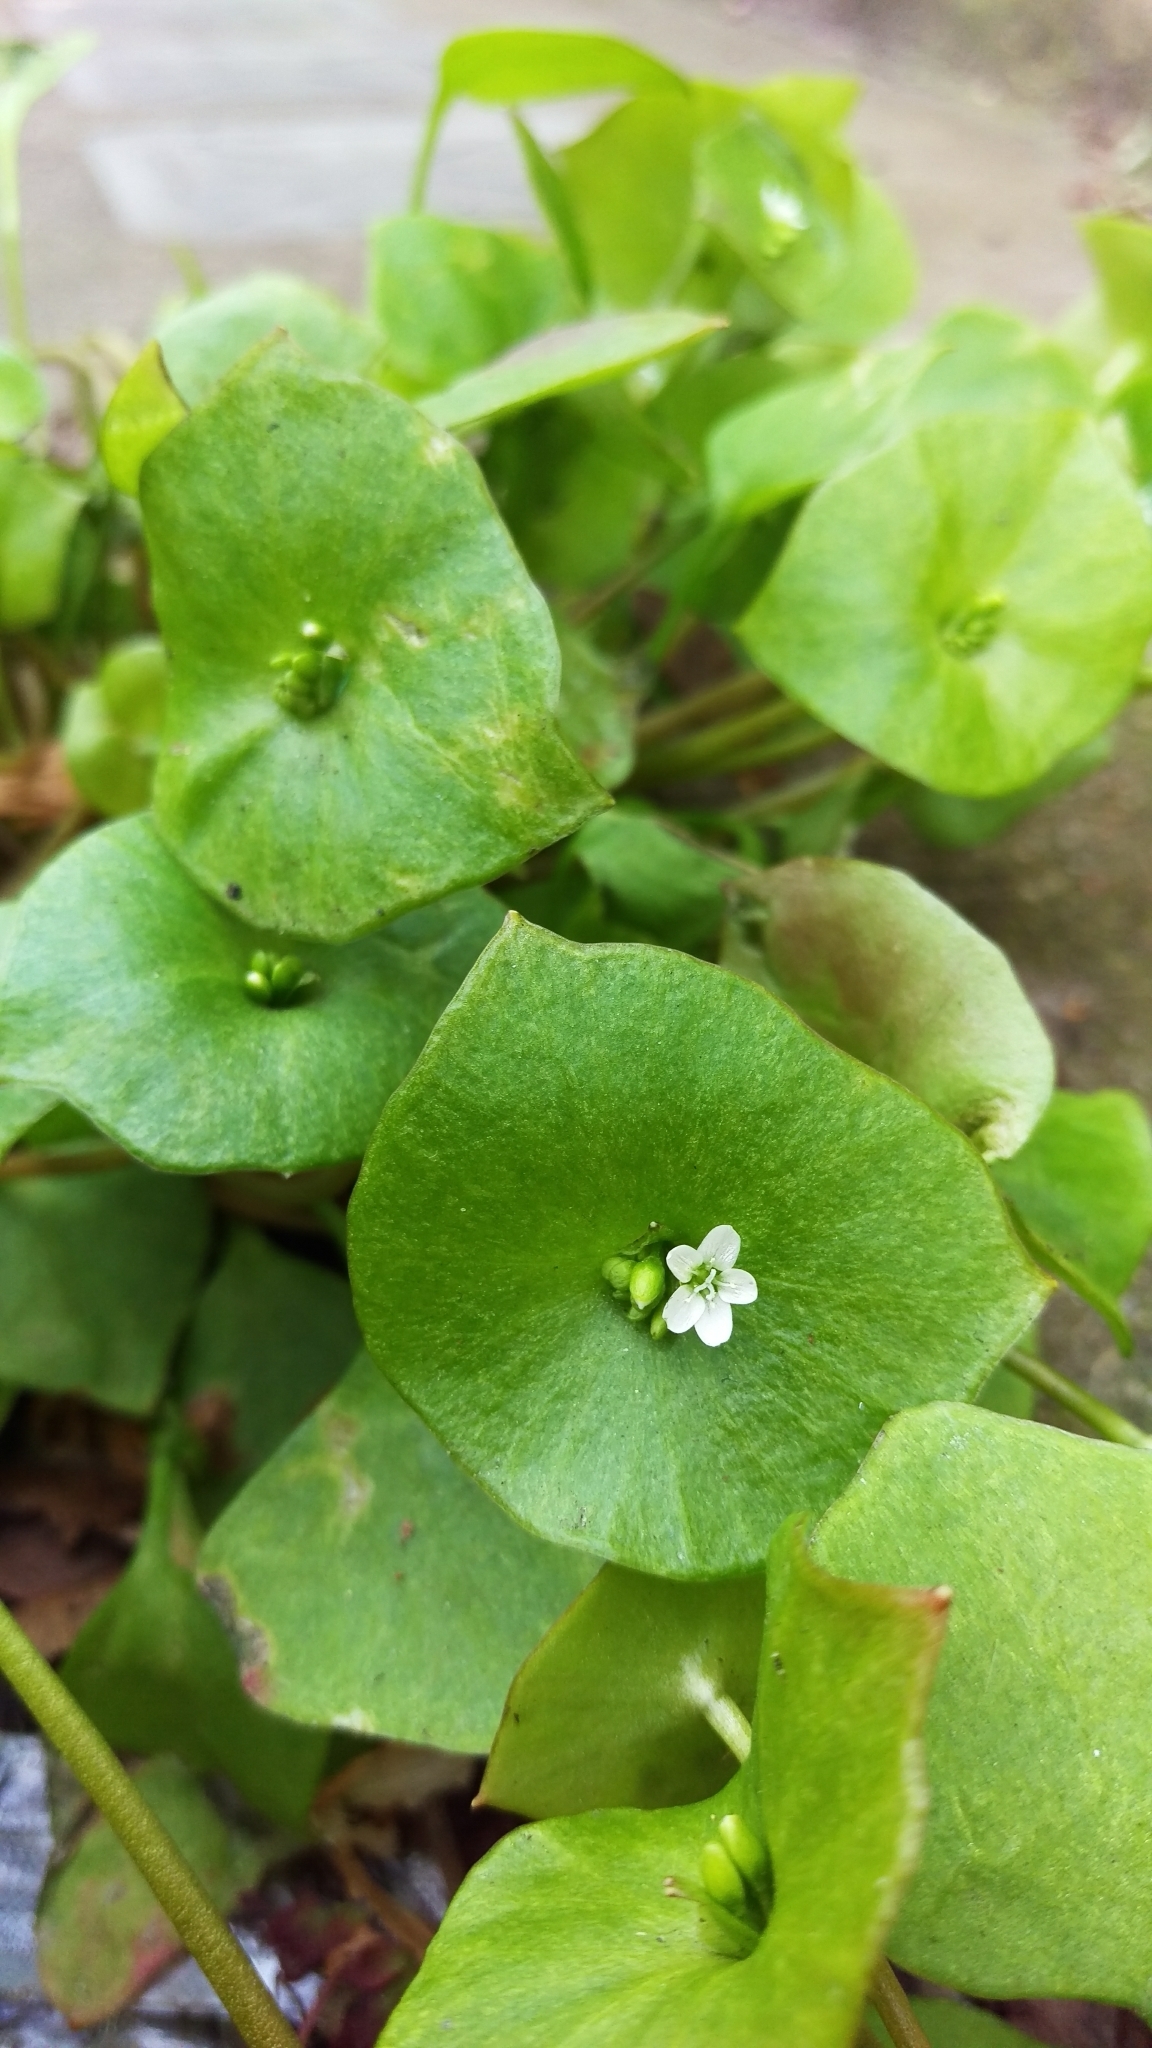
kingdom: Plantae
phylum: Tracheophyta
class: Magnoliopsida
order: Caryophyllales
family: Montiaceae
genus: Claytonia
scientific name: Claytonia perfoliata
